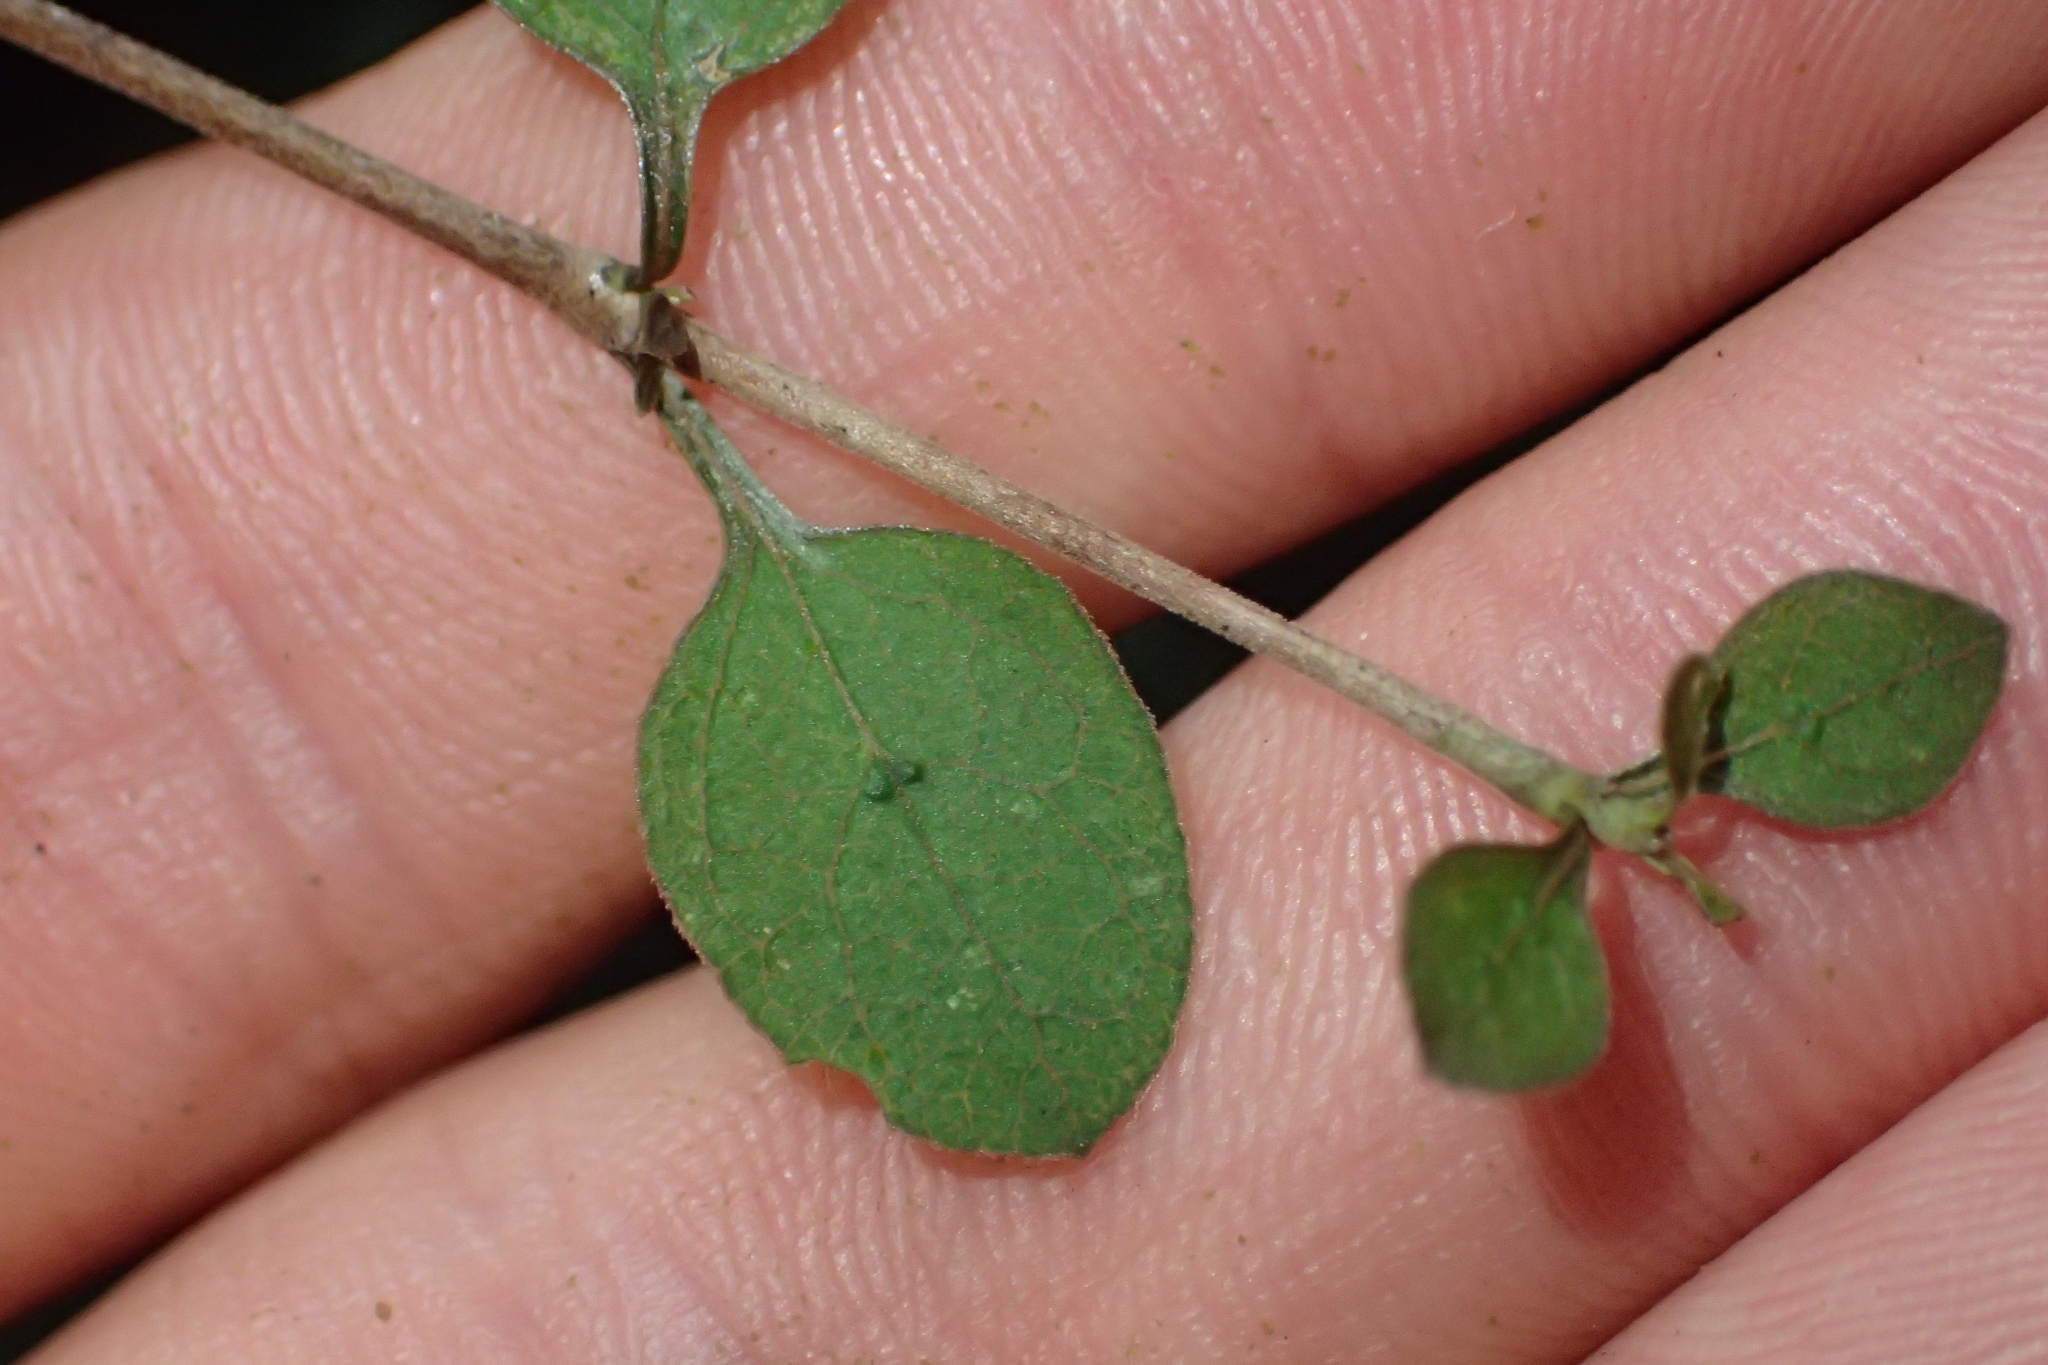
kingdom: Plantae
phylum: Tracheophyta
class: Magnoliopsida
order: Gentianales
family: Rubiaceae
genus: Coprosma
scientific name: Coprosma rubra
